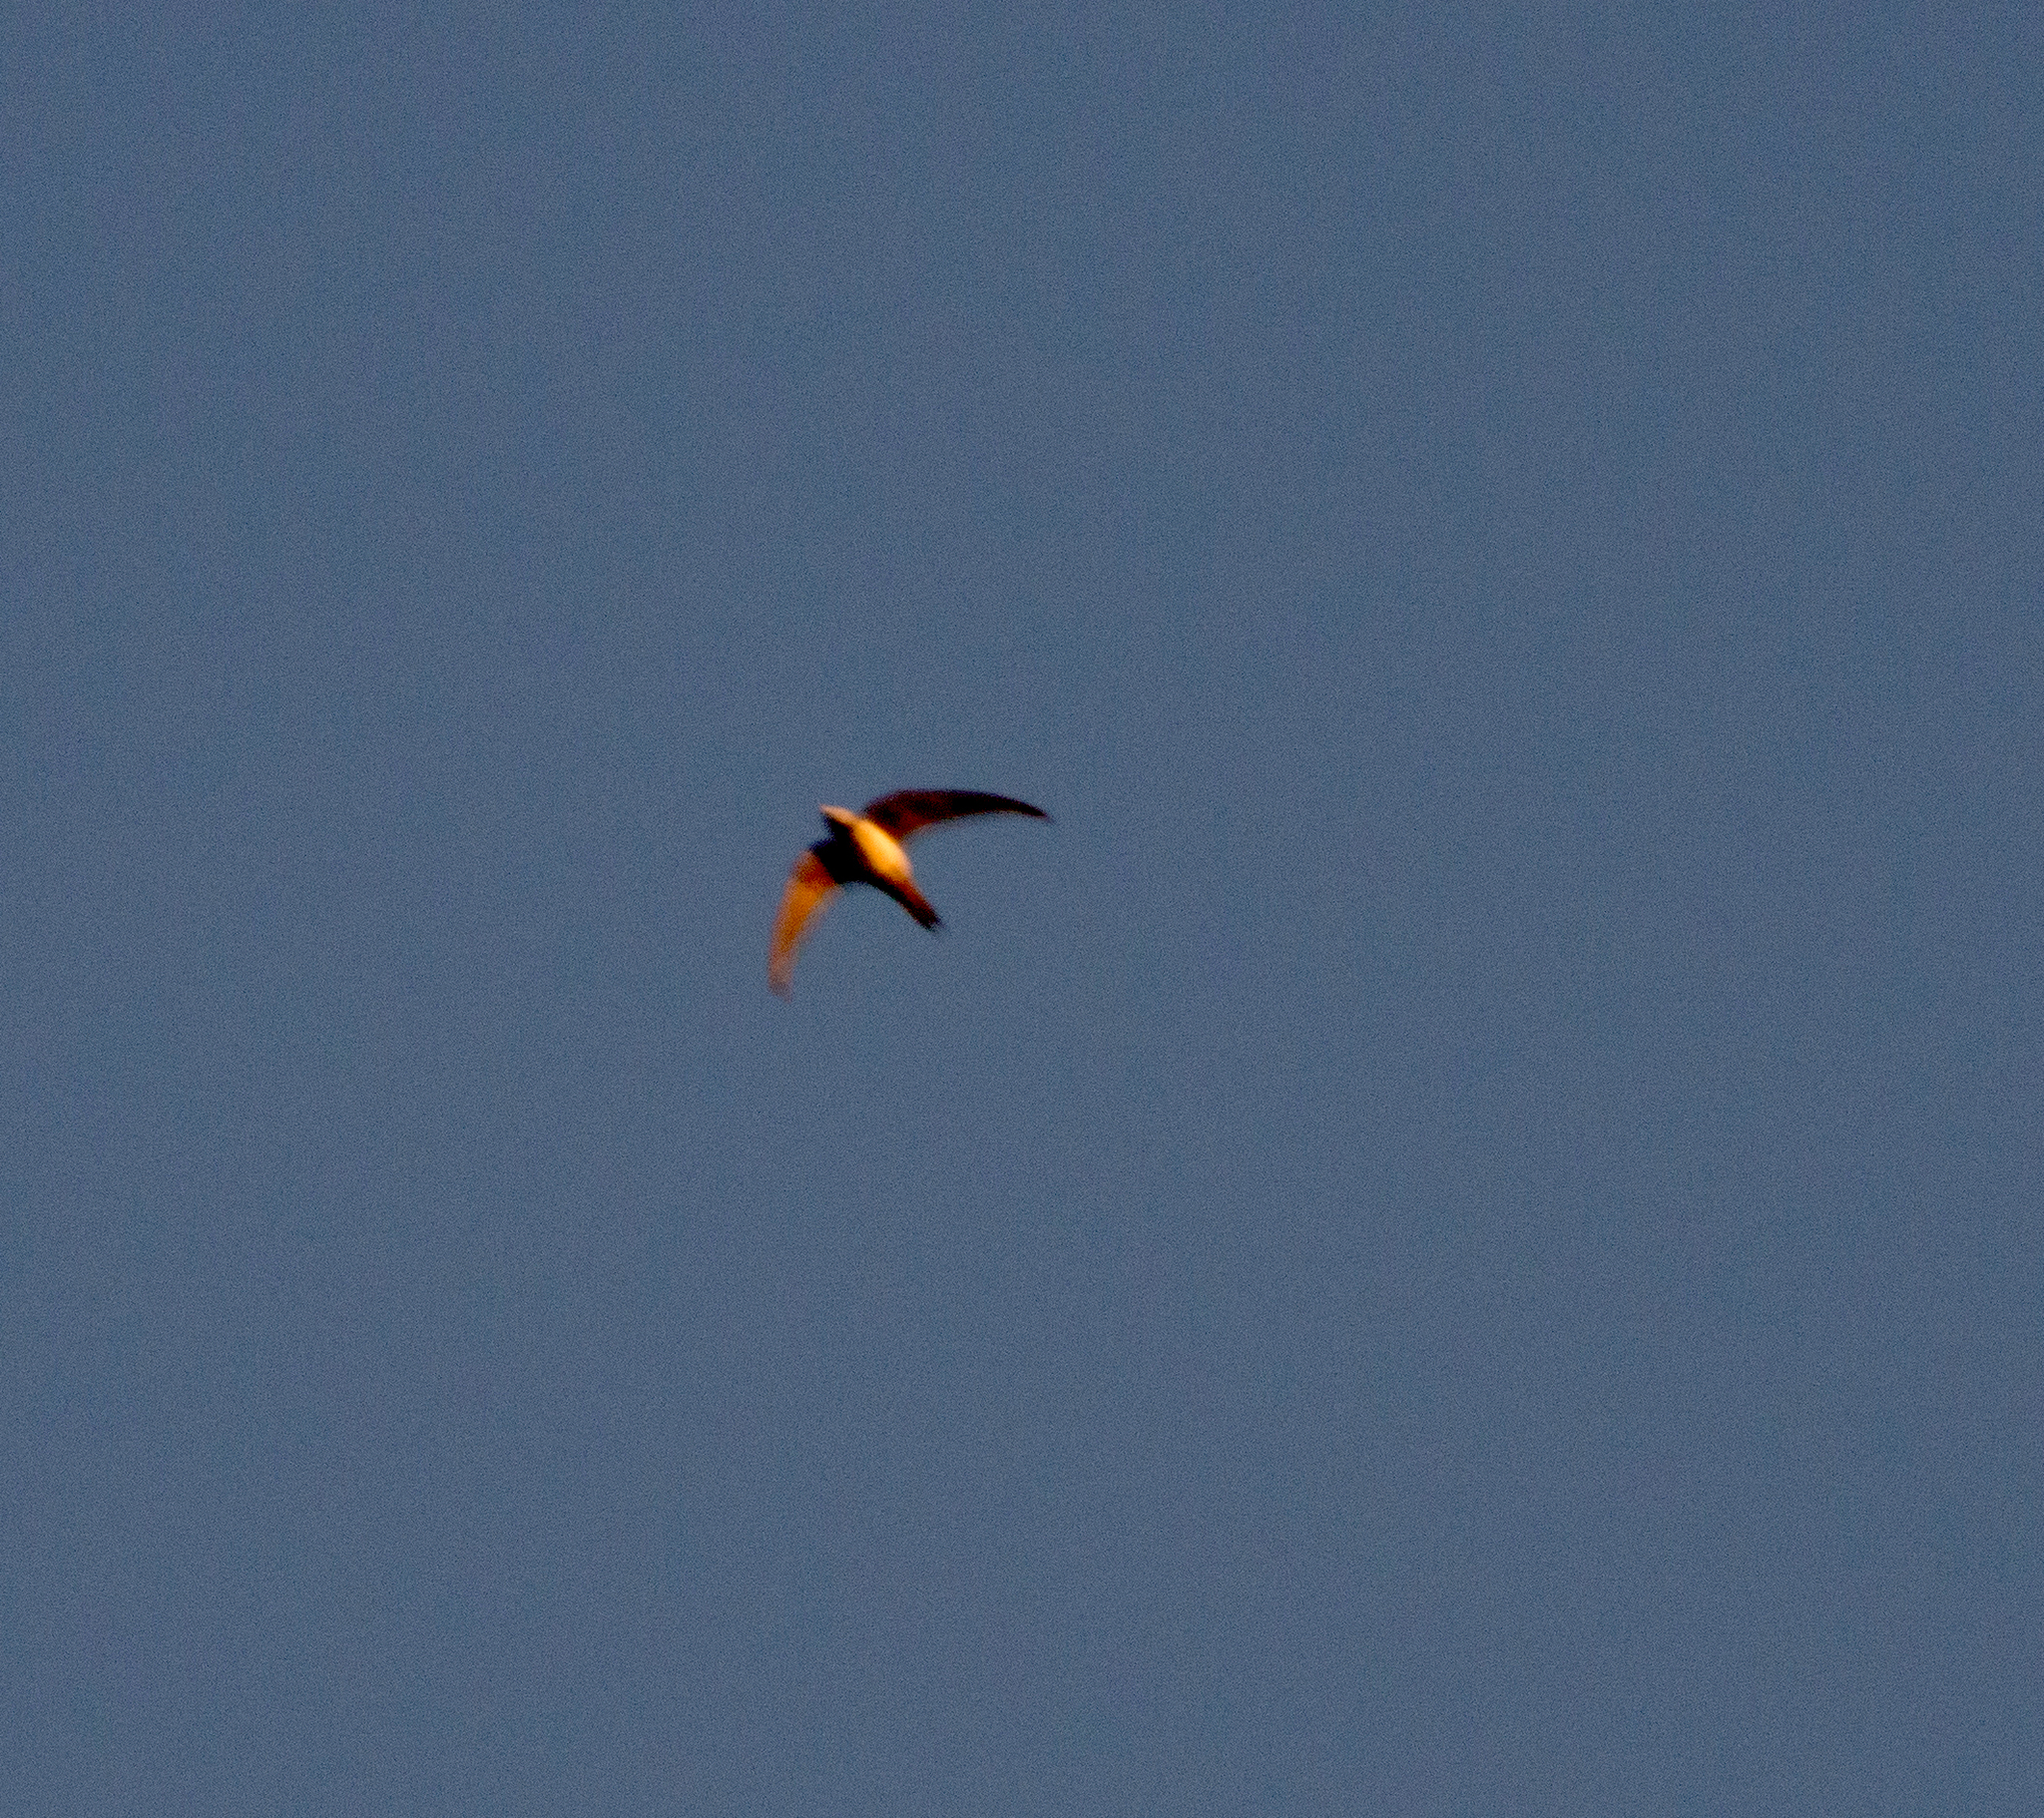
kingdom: Animalia
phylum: Chordata
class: Aves
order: Apodiformes
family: Apodidae
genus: Tachymarptis
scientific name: Tachymarptis melba
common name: Alpine swift
